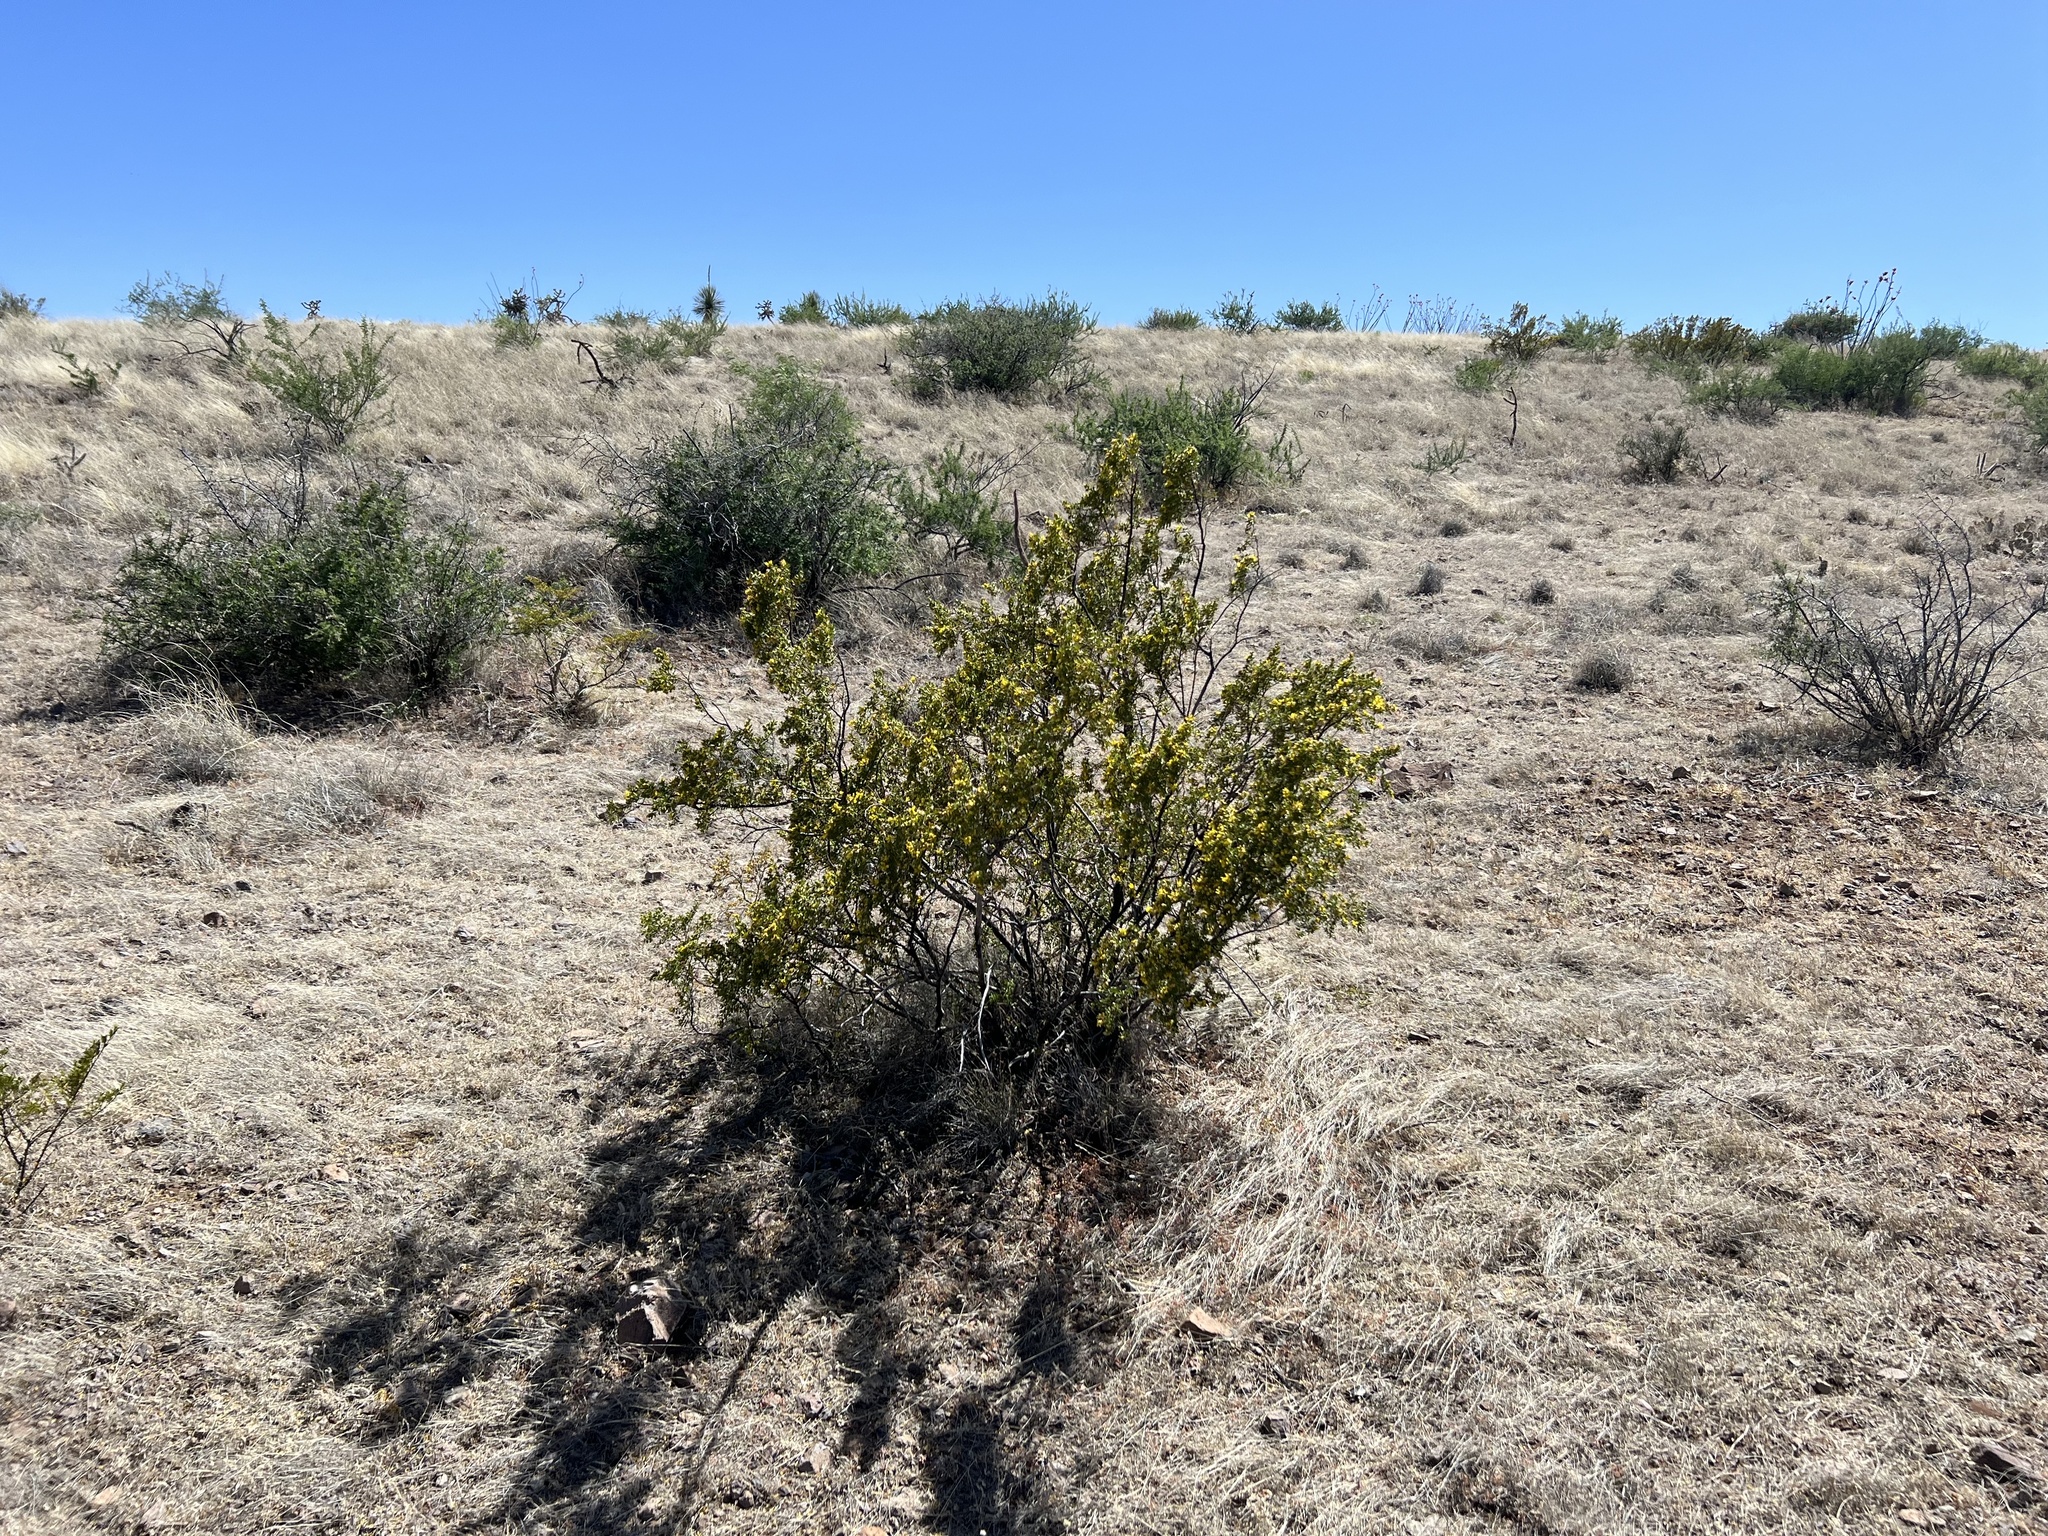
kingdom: Plantae
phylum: Tracheophyta
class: Magnoliopsida
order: Zygophyllales
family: Zygophyllaceae
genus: Larrea
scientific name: Larrea tridentata
